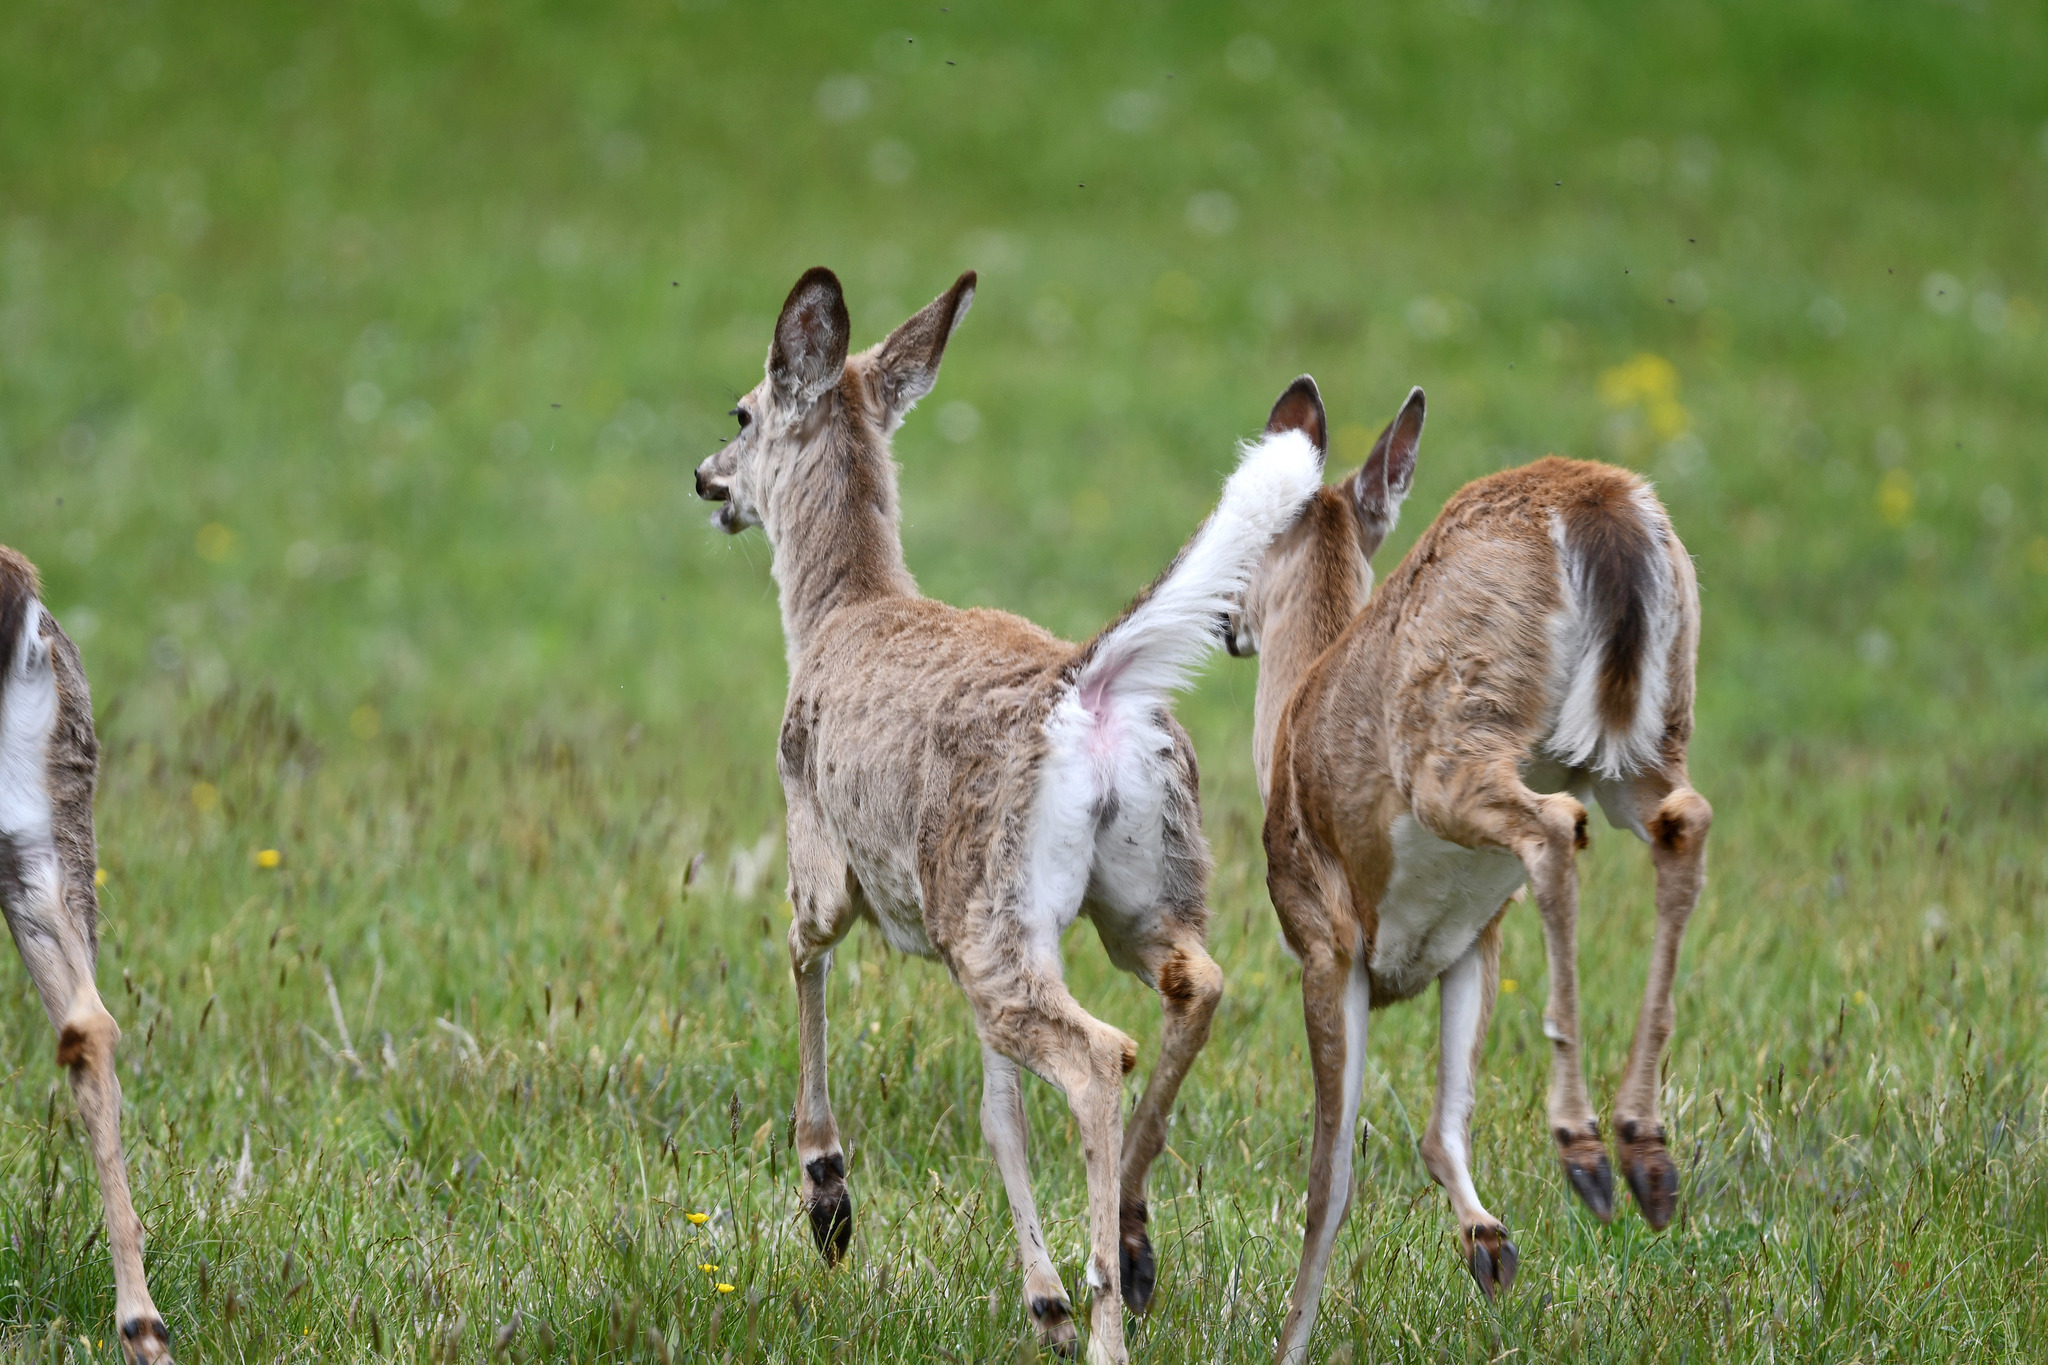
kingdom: Animalia
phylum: Chordata
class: Mammalia
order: Artiodactyla
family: Cervidae
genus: Odocoileus
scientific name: Odocoileus virginianus
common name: White-tailed deer
